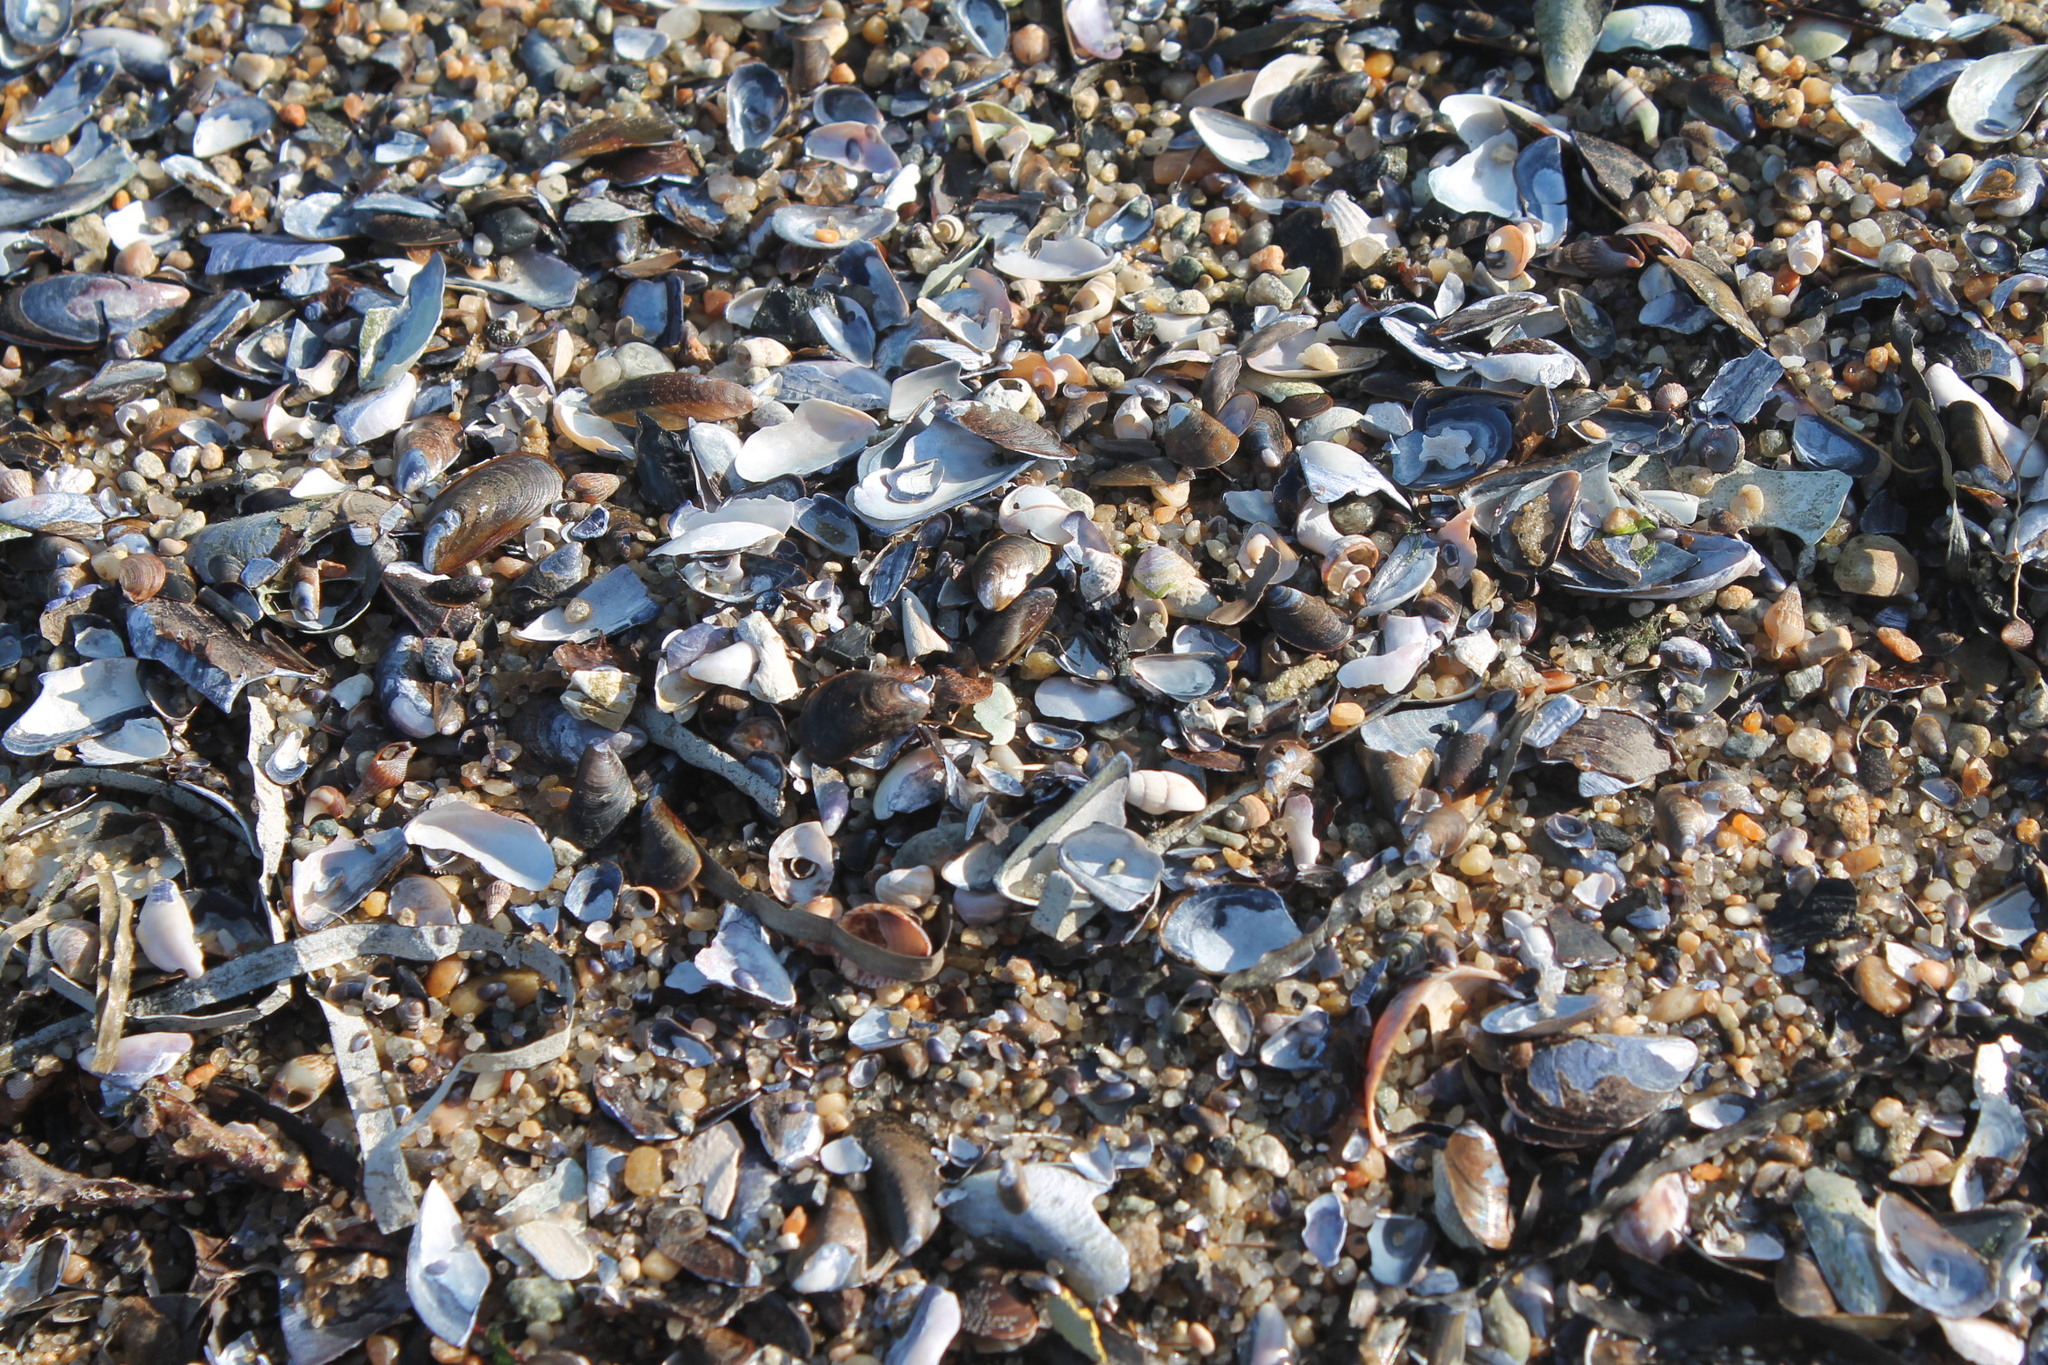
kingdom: Animalia
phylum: Mollusca
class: Bivalvia
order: Mytilida
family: Mytilidae
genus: Mytilus
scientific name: Mytilus edulis
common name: Blue mussel
